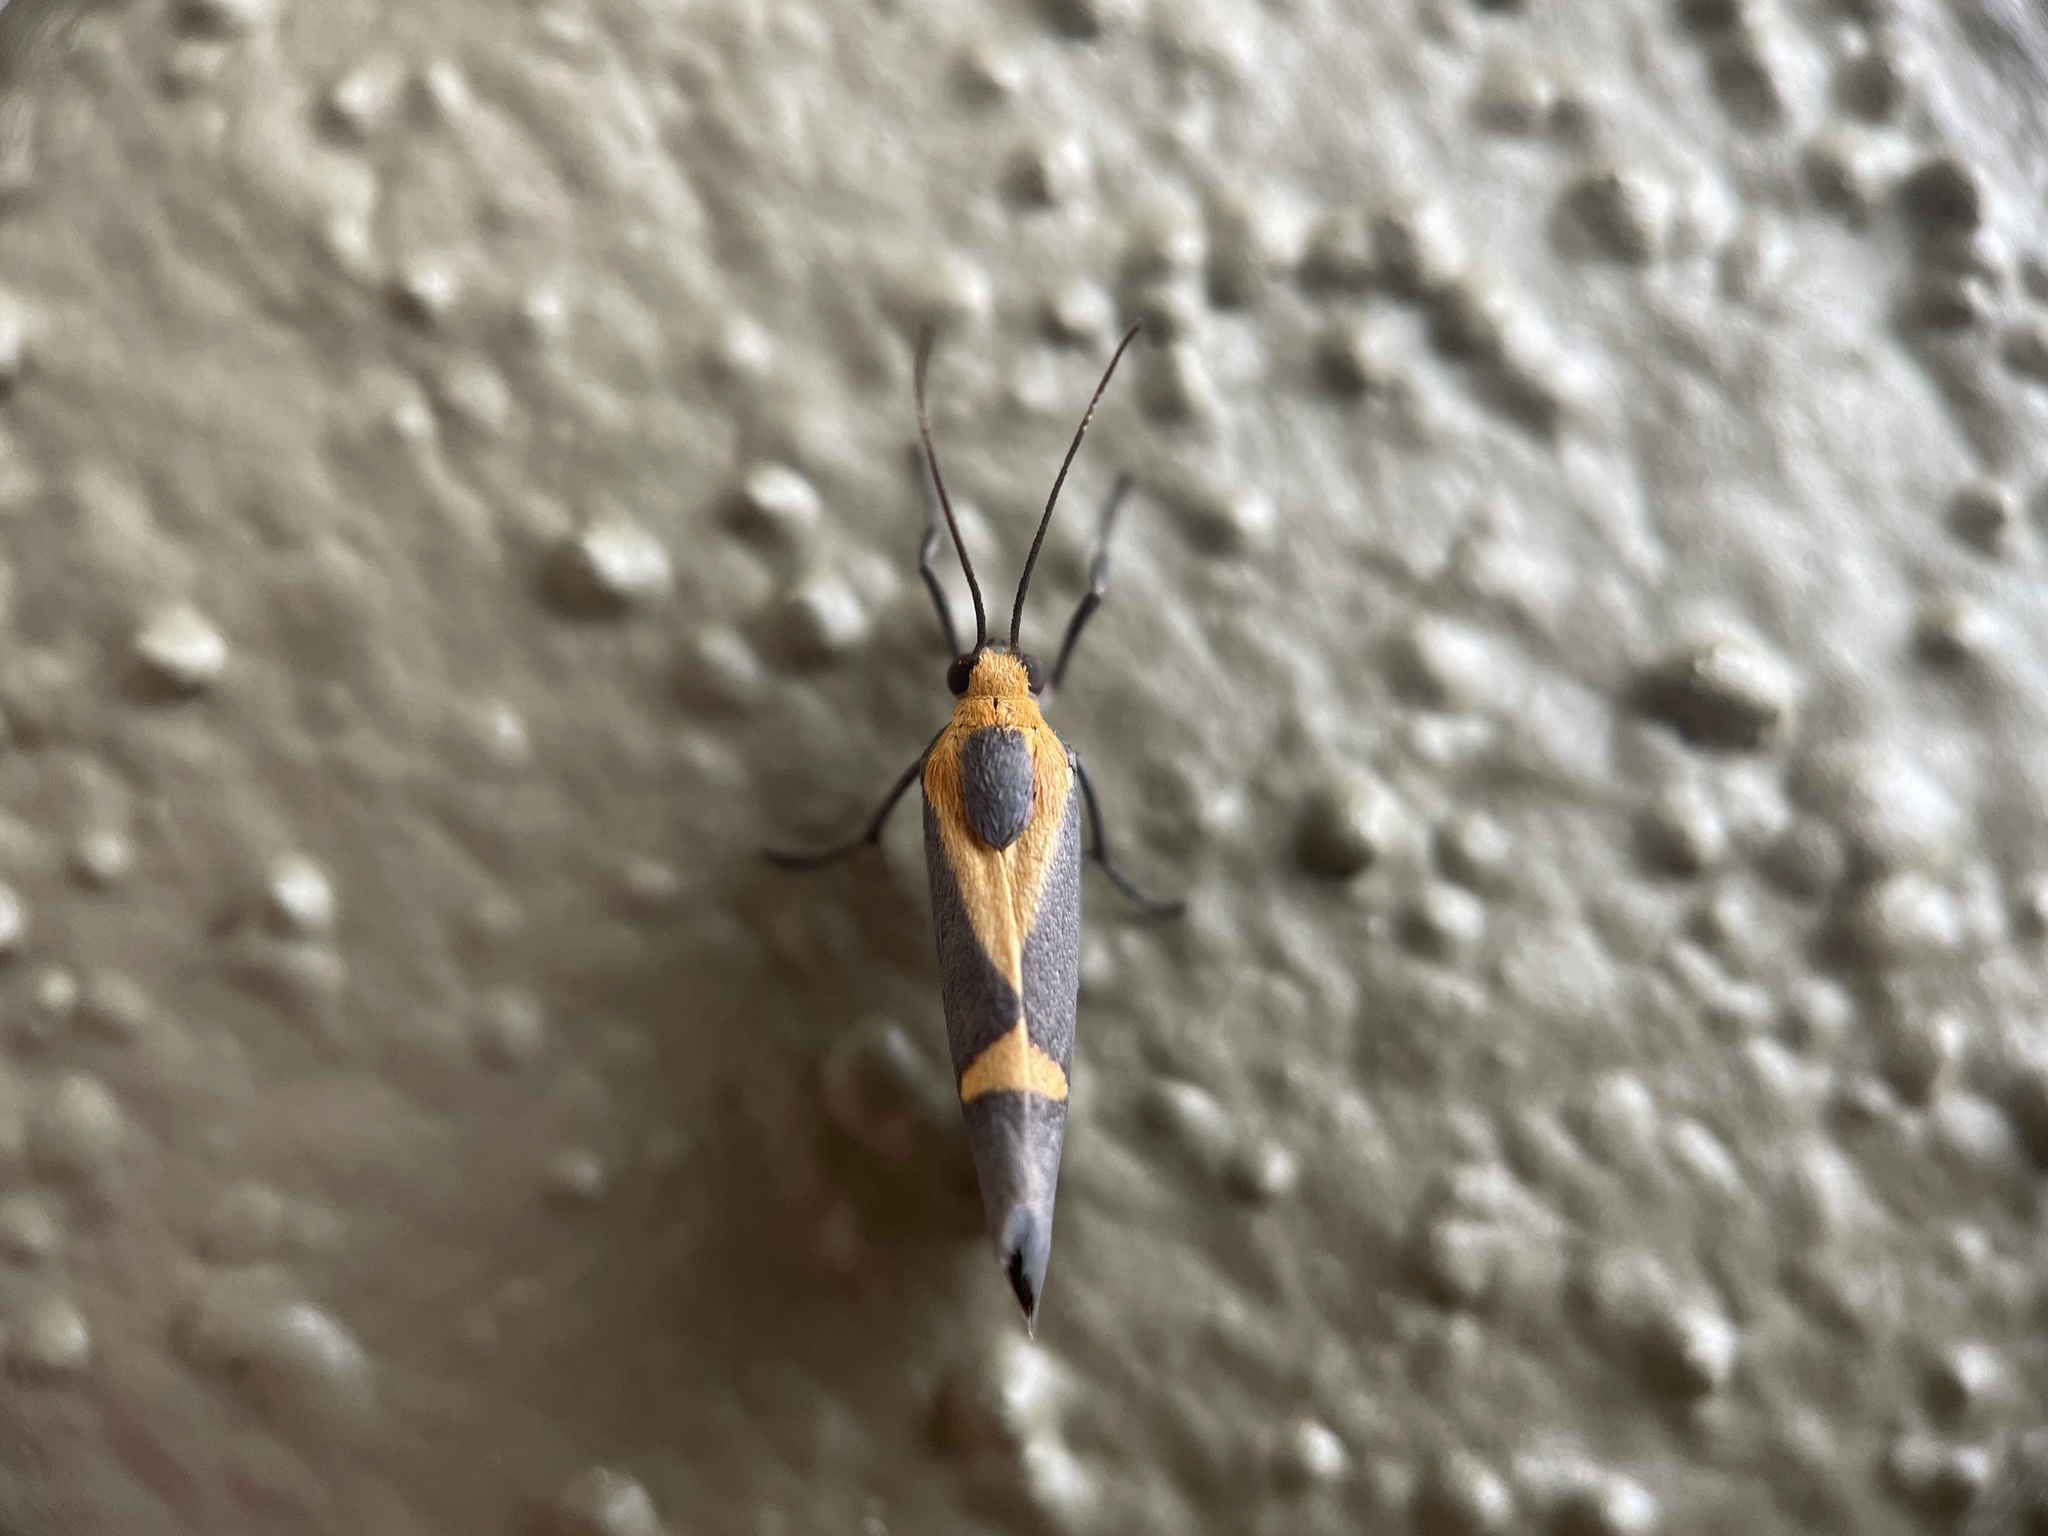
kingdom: Animalia
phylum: Arthropoda
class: Insecta
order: Lepidoptera
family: Erebidae
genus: Cisthene
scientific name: Cisthene tenuifascia
